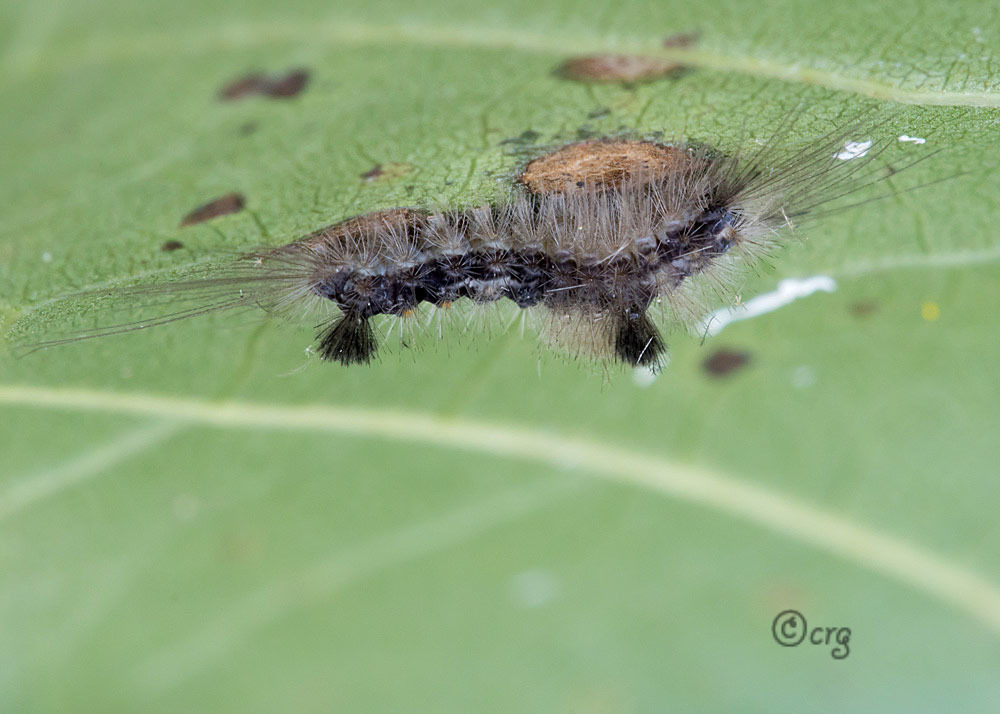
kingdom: Animalia
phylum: Arthropoda
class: Insecta
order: Lepidoptera
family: Erebidae
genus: Dasychira
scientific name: Dasychira obliquata
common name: Streaked tussock moth
